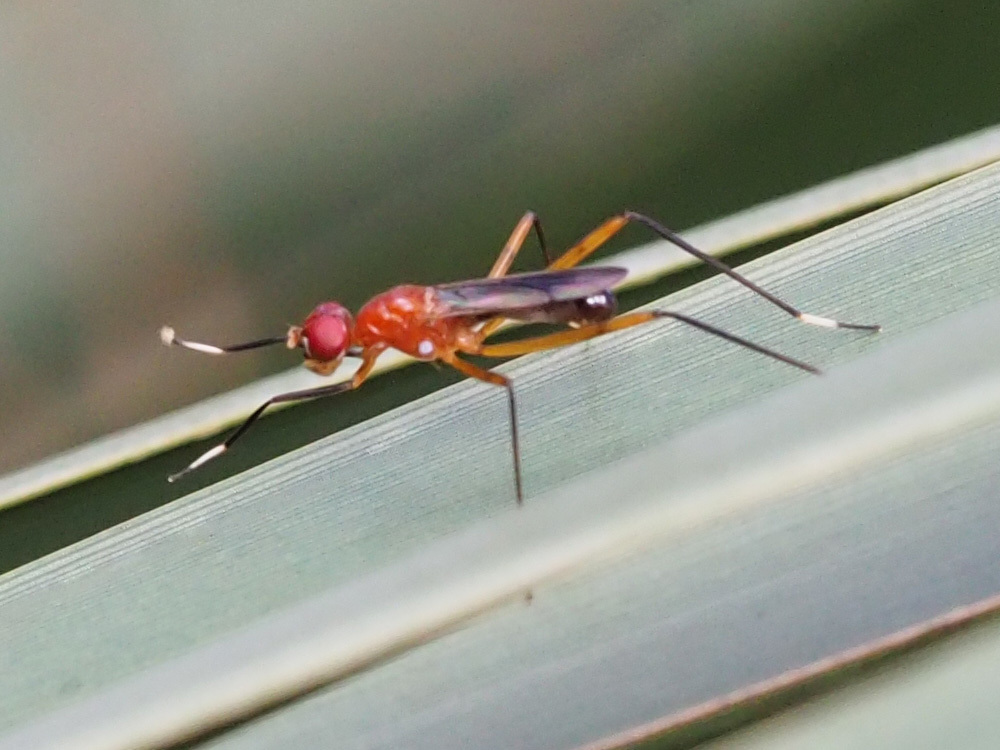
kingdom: Animalia
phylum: Arthropoda
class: Insecta
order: Diptera
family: Micropezidae
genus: Grallipeza
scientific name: Grallipeza nebulosa
